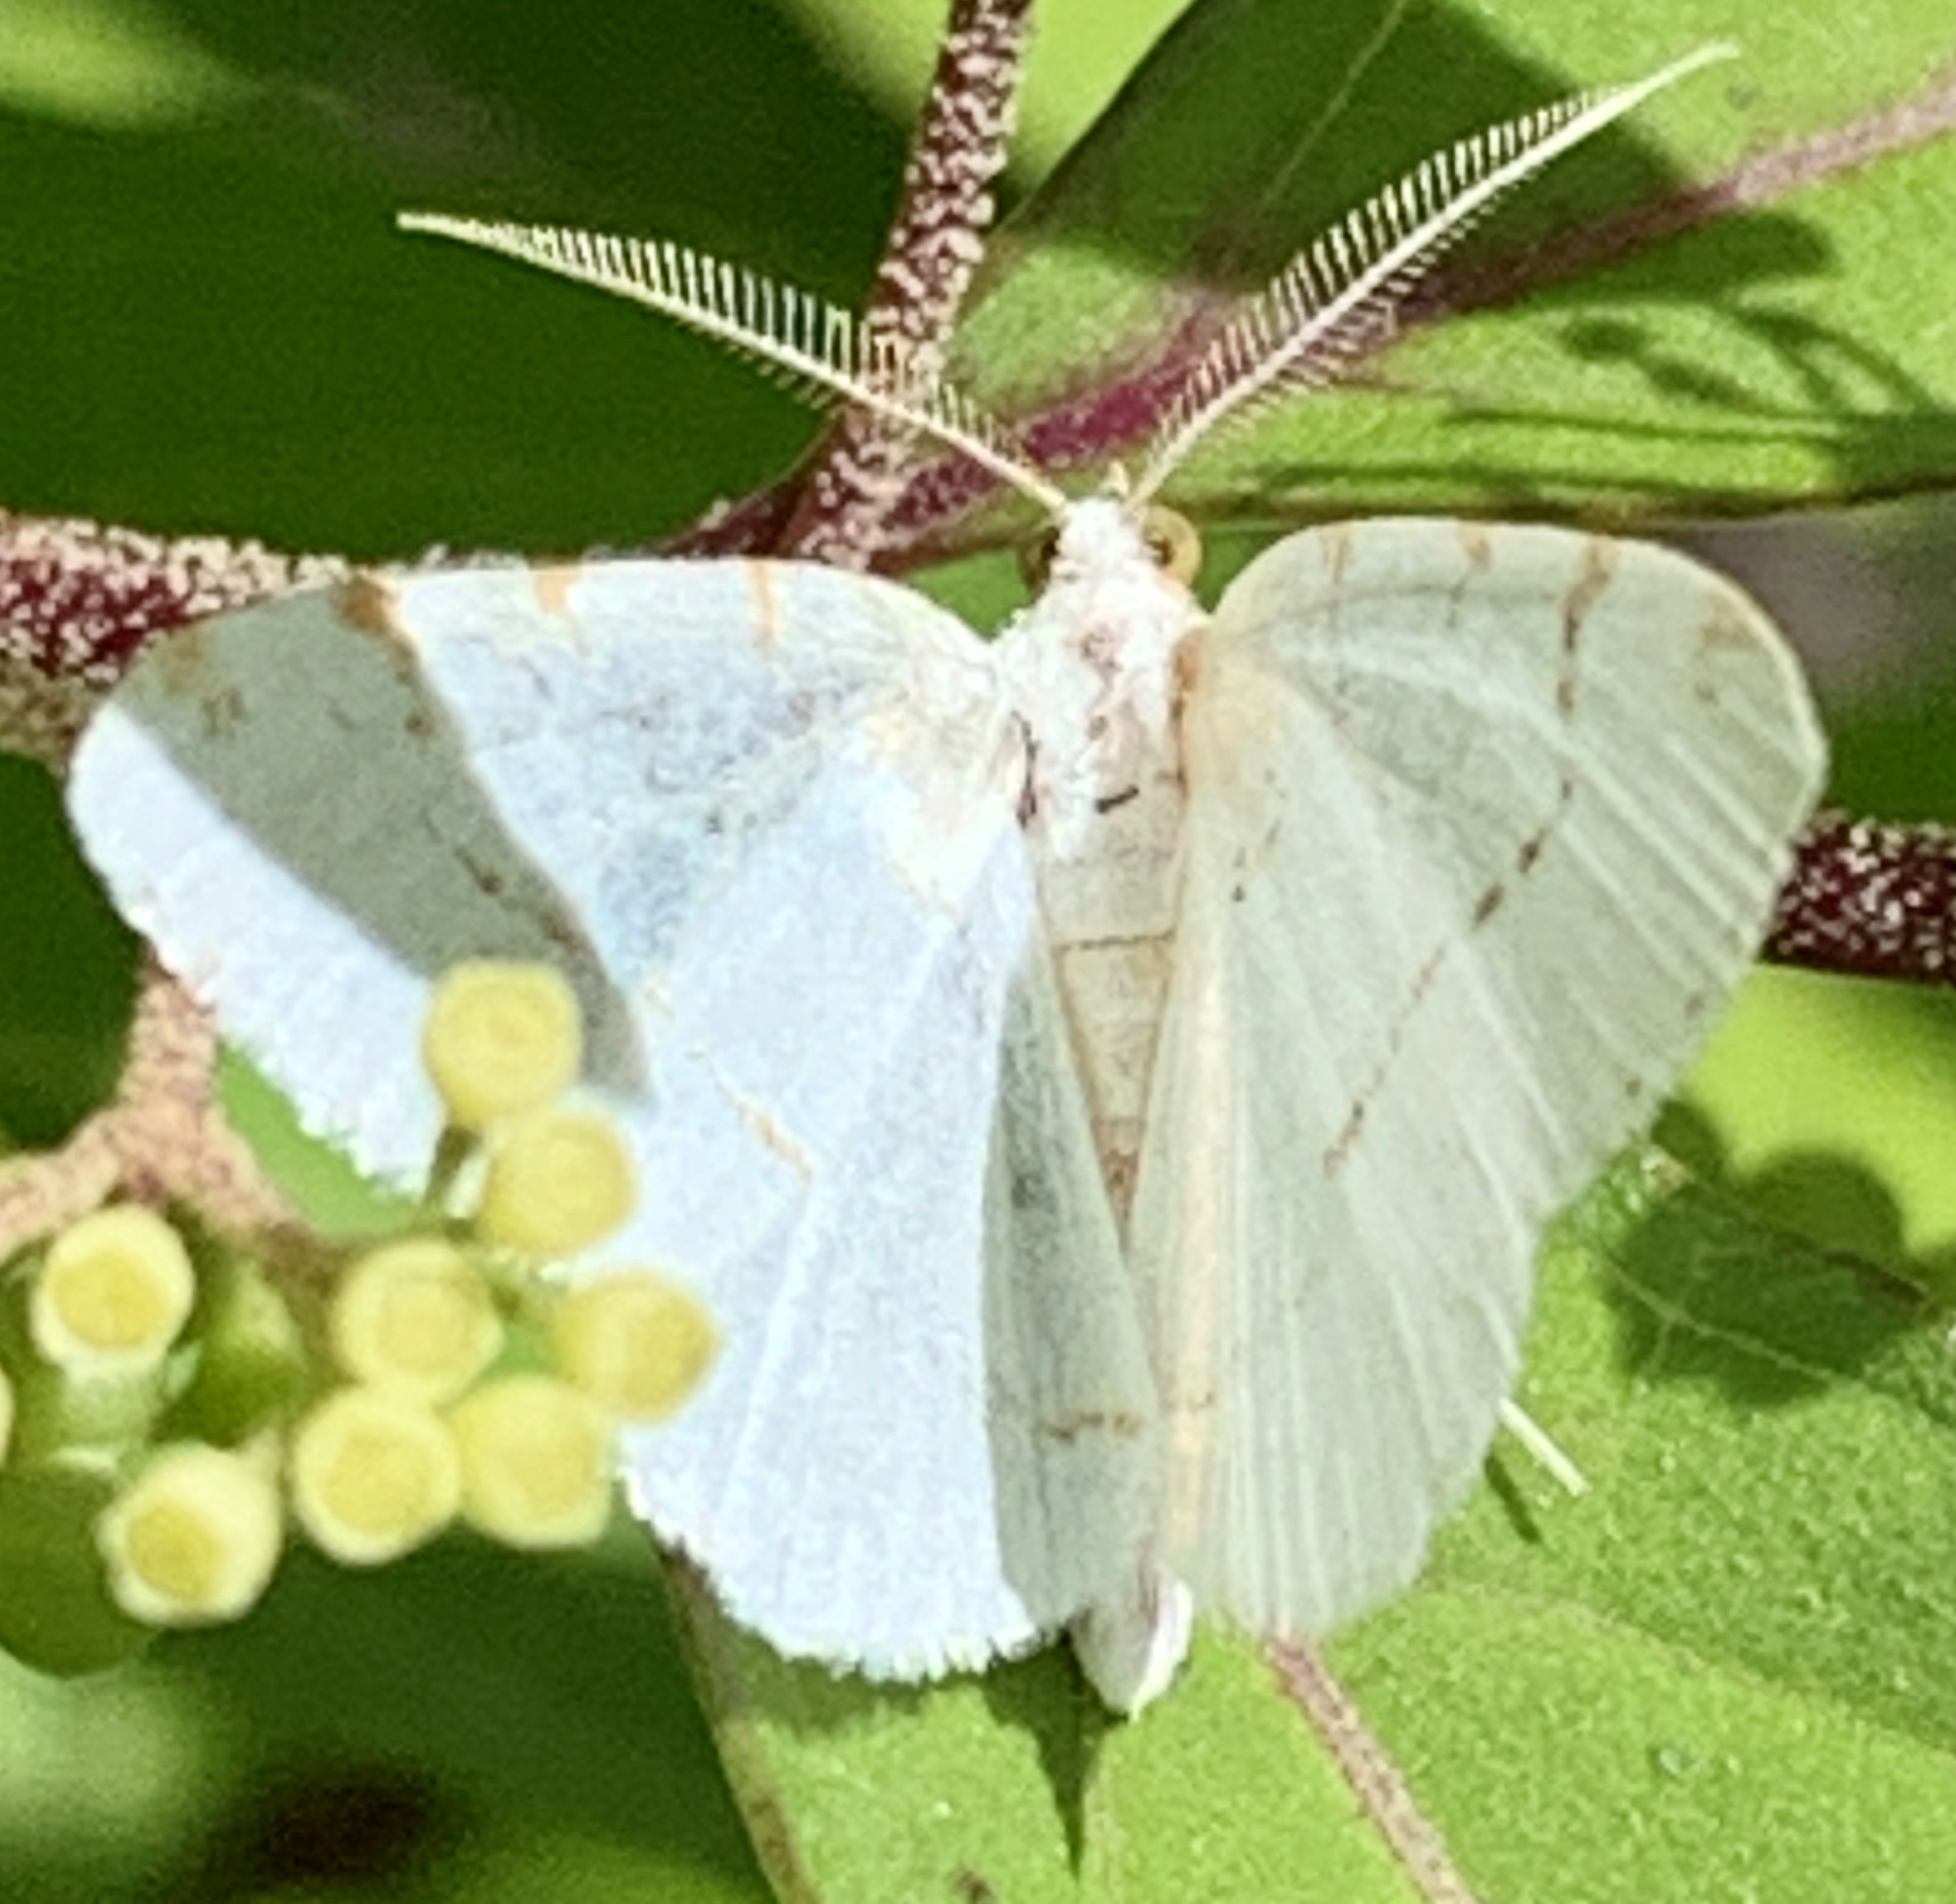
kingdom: Animalia
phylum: Arthropoda
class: Insecta
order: Lepidoptera
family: Geometridae
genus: Macaria
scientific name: Macaria pustularia
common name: Lesser maple spanworm moth
